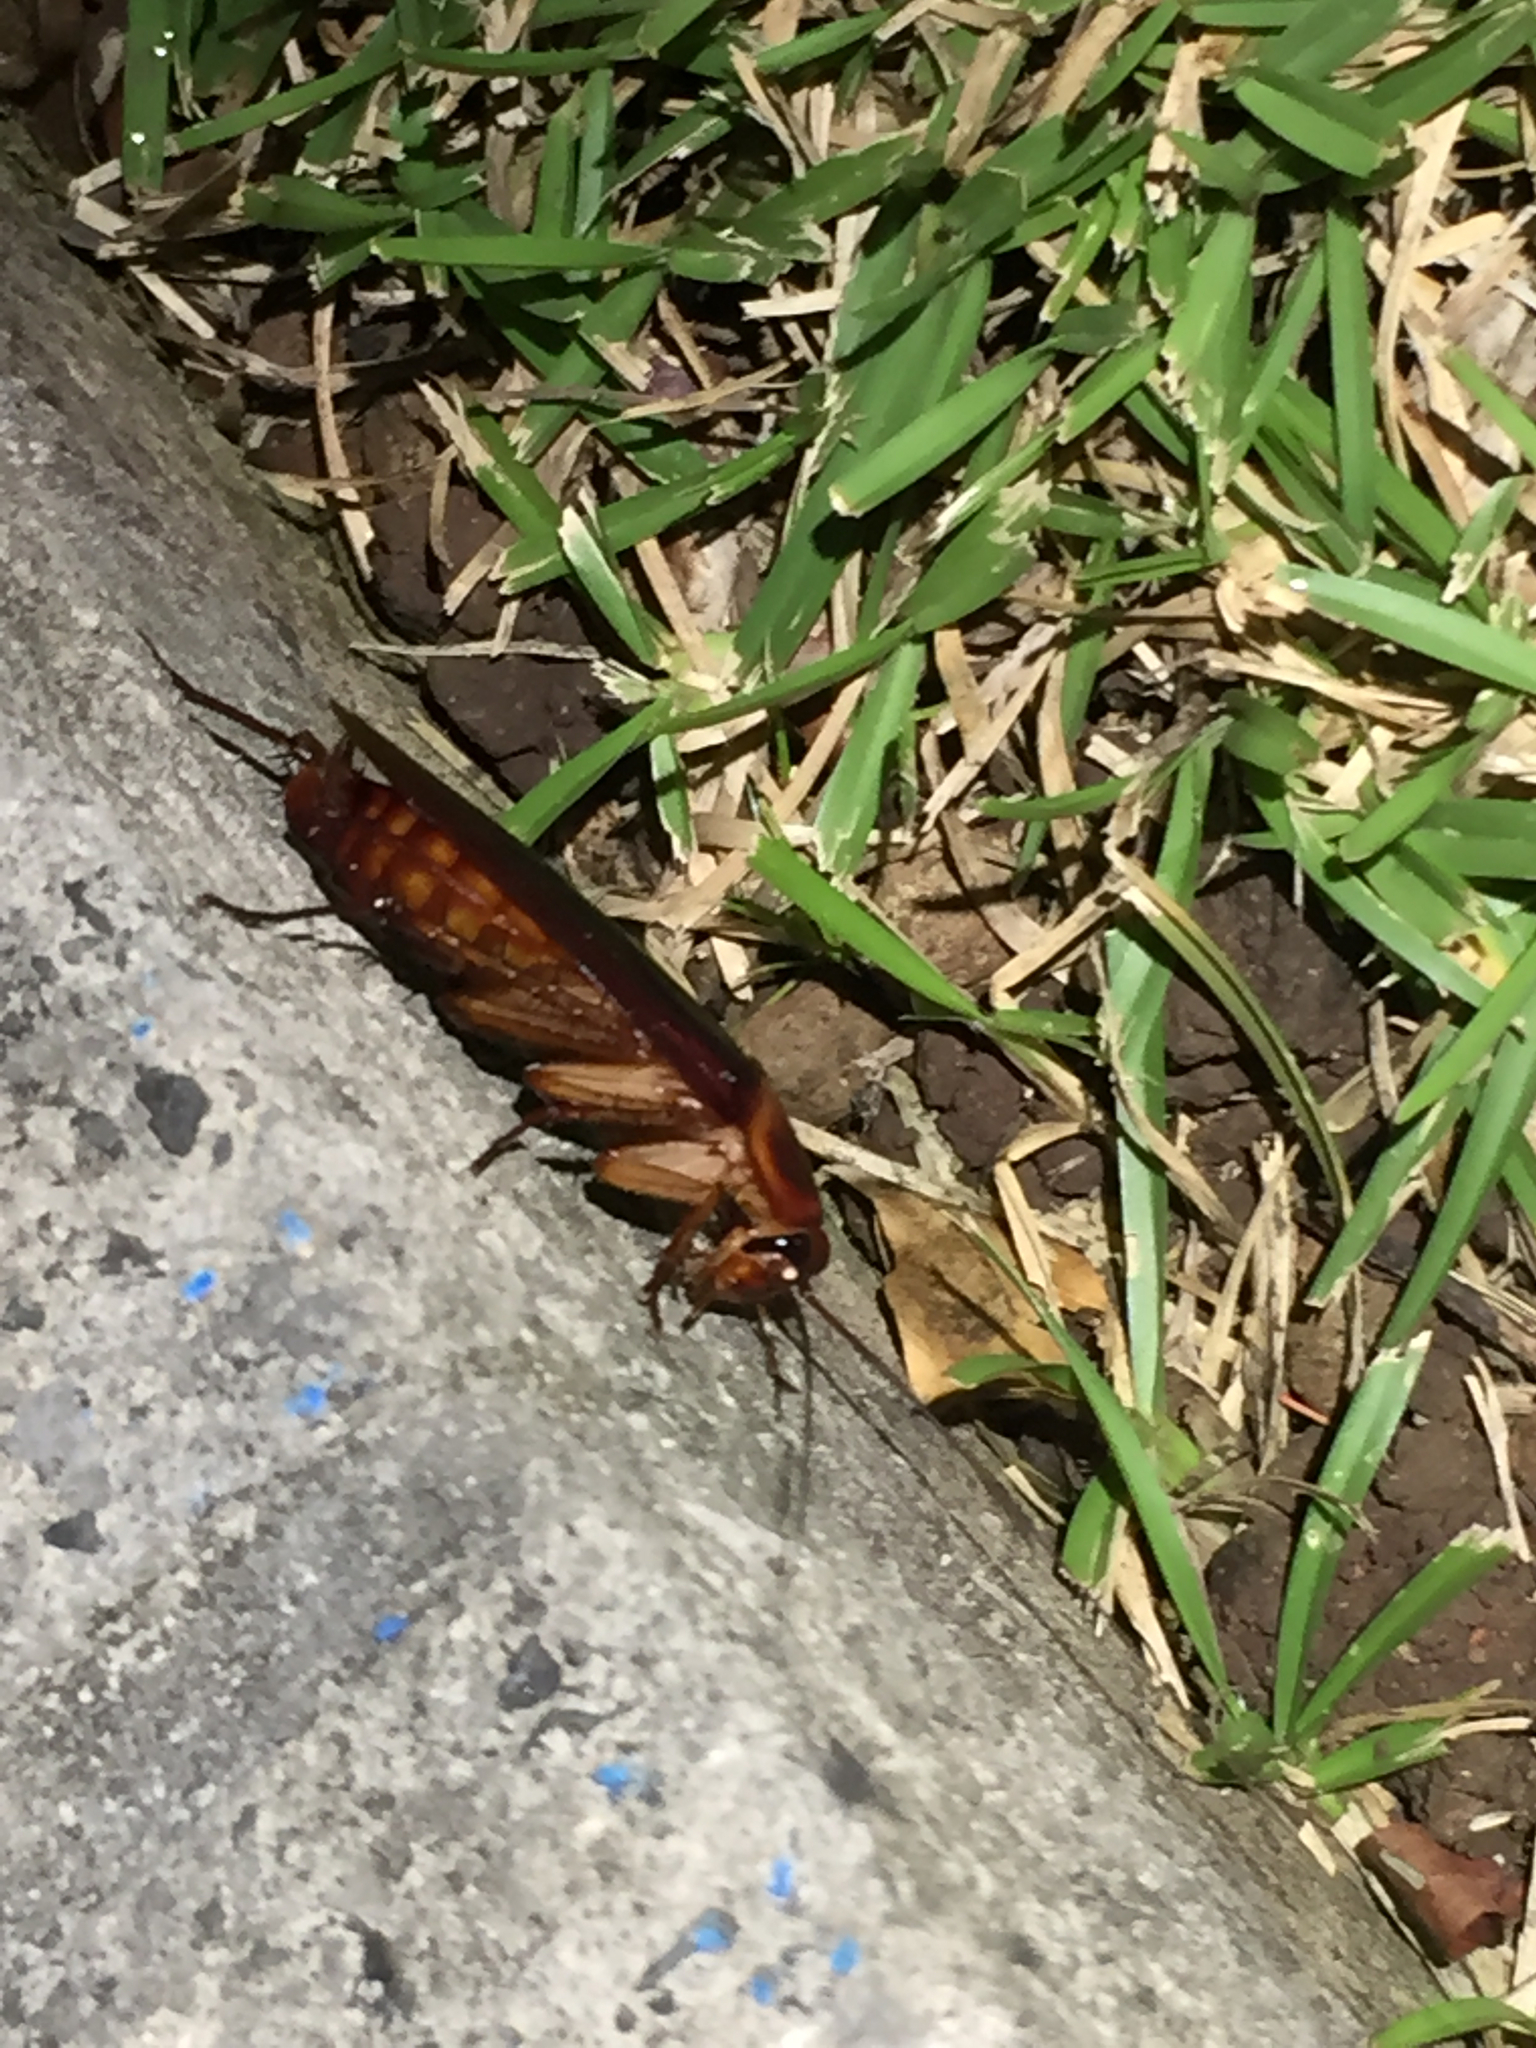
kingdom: Animalia
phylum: Arthropoda
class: Insecta
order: Blattodea
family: Blattidae
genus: Periplaneta
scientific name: Periplaneta americana
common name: American cockroach
